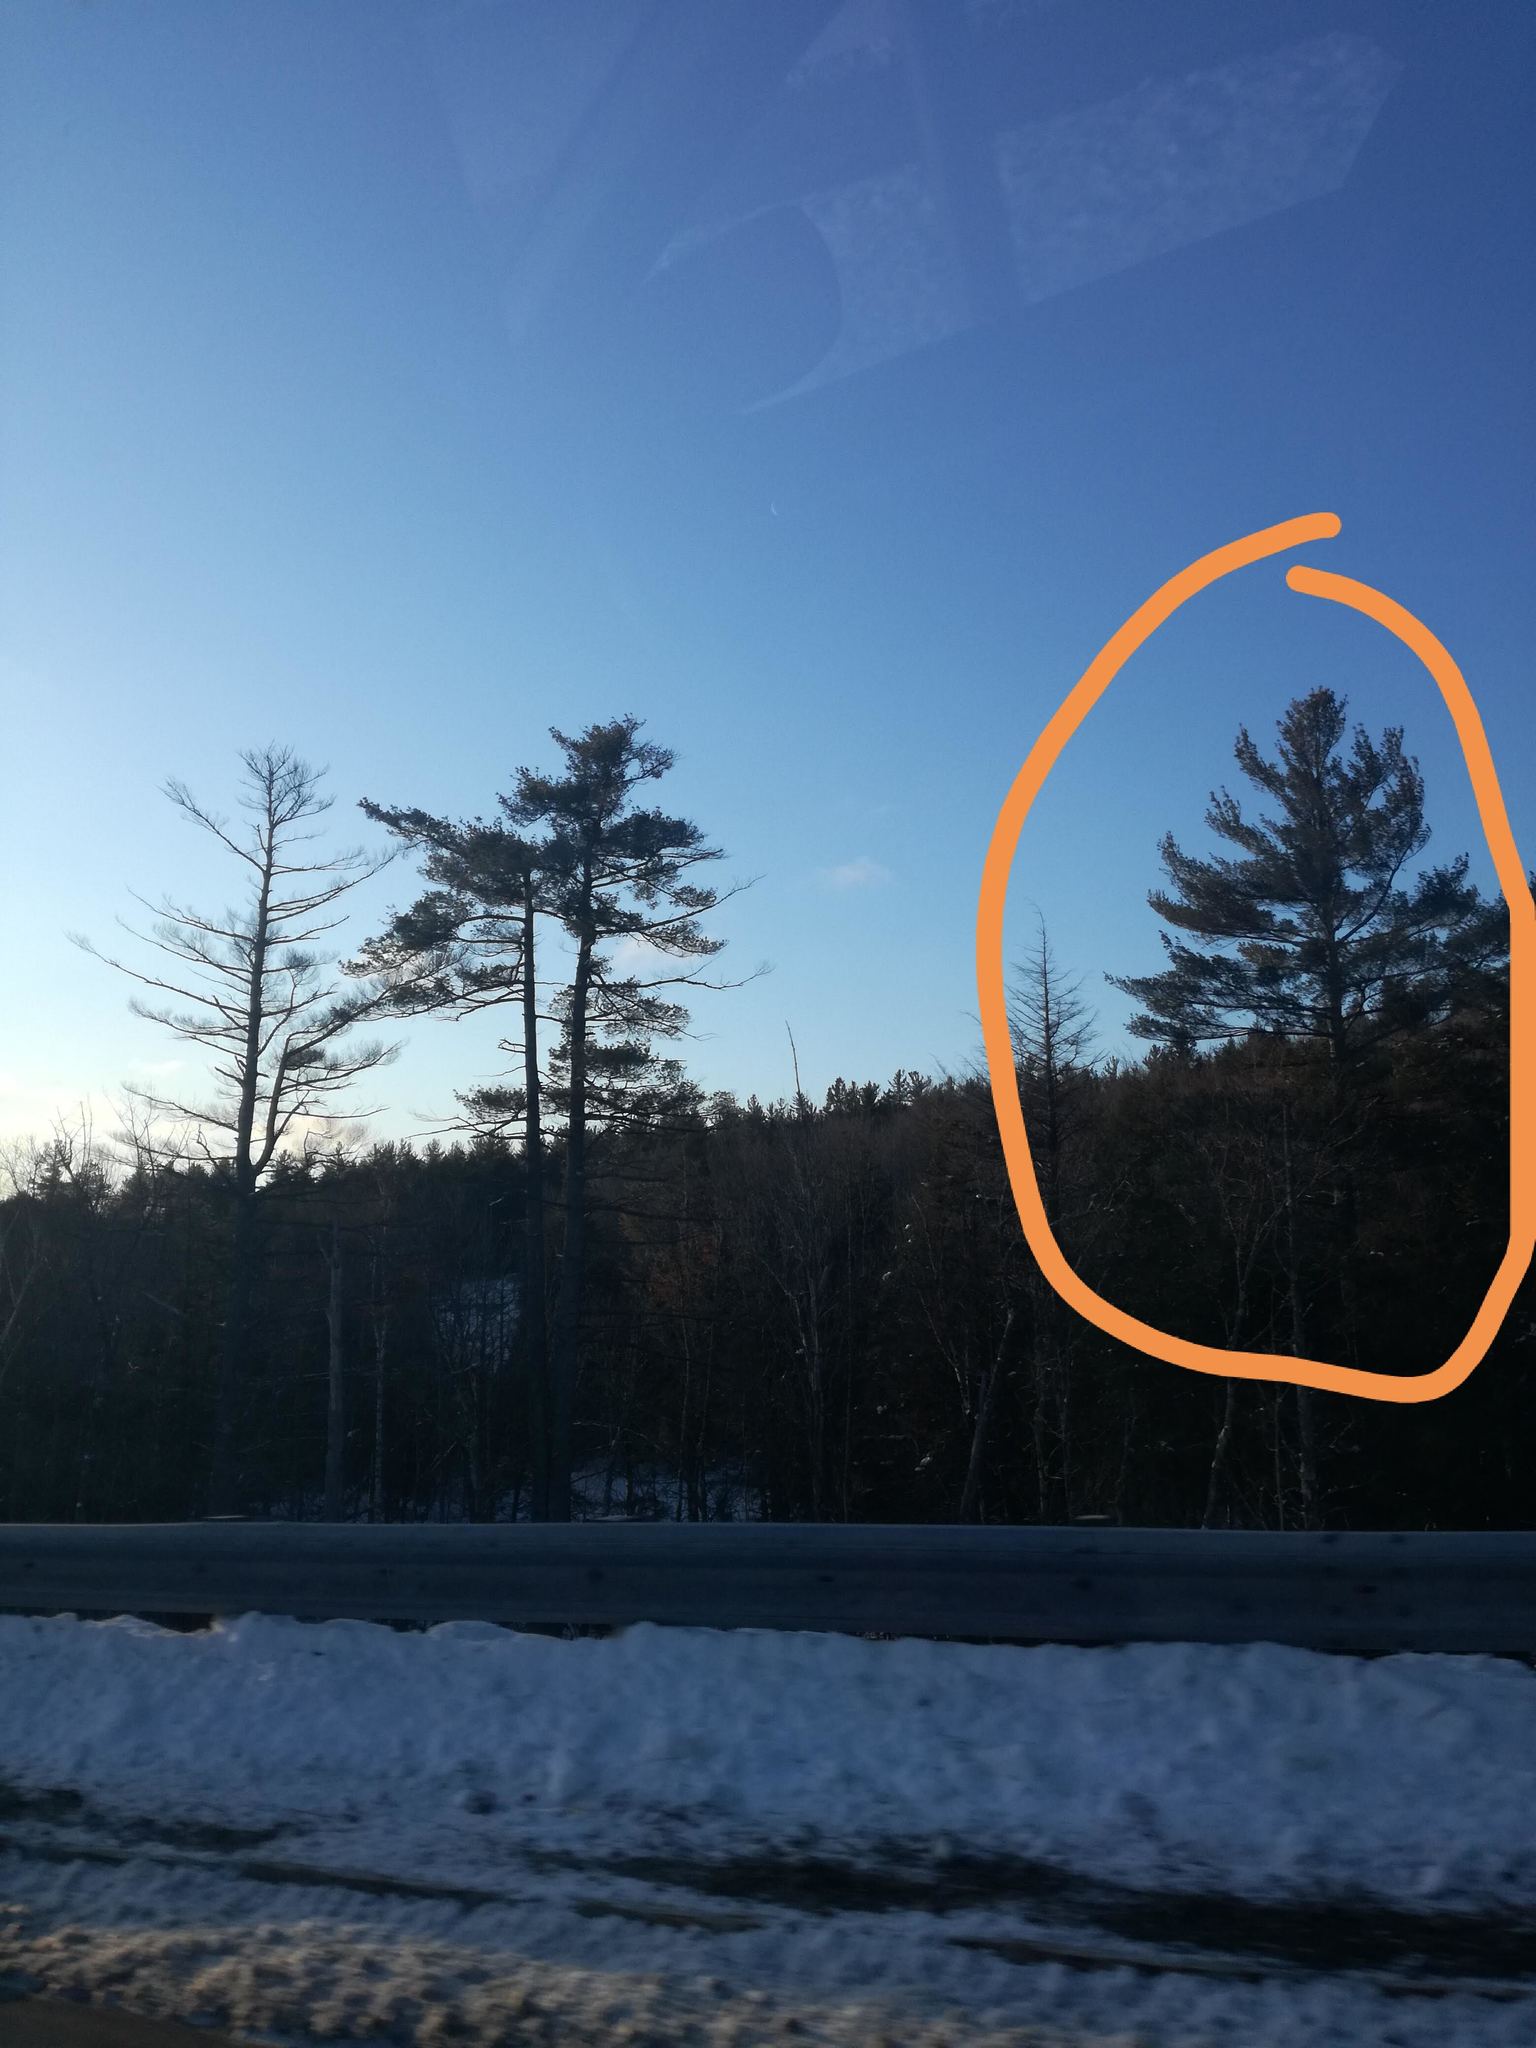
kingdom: Plantae
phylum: Tracheophyta
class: Pinopsida
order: Pinales
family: Pinaceae
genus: Pinus
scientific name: Pinus strobus
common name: Weymouth pine
